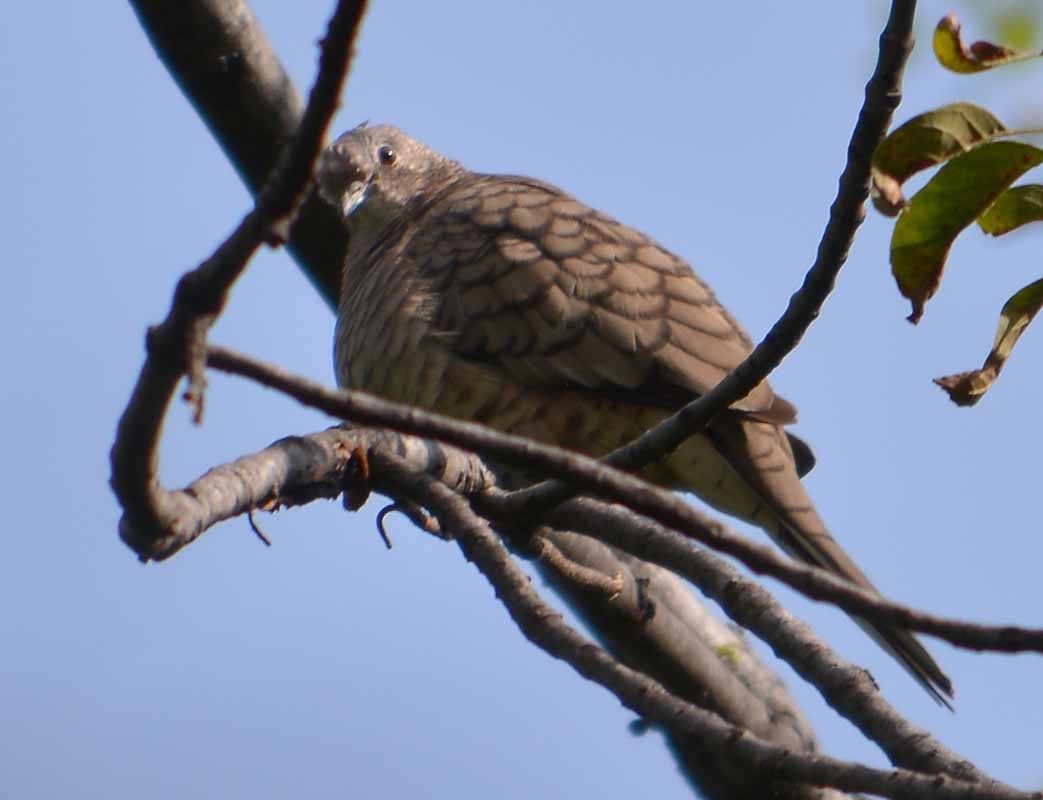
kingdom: Animalia
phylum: Chordata
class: Aves
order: Columbiformes
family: Columbidae
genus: Columbina
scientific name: Columbina inca
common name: Inca dove
